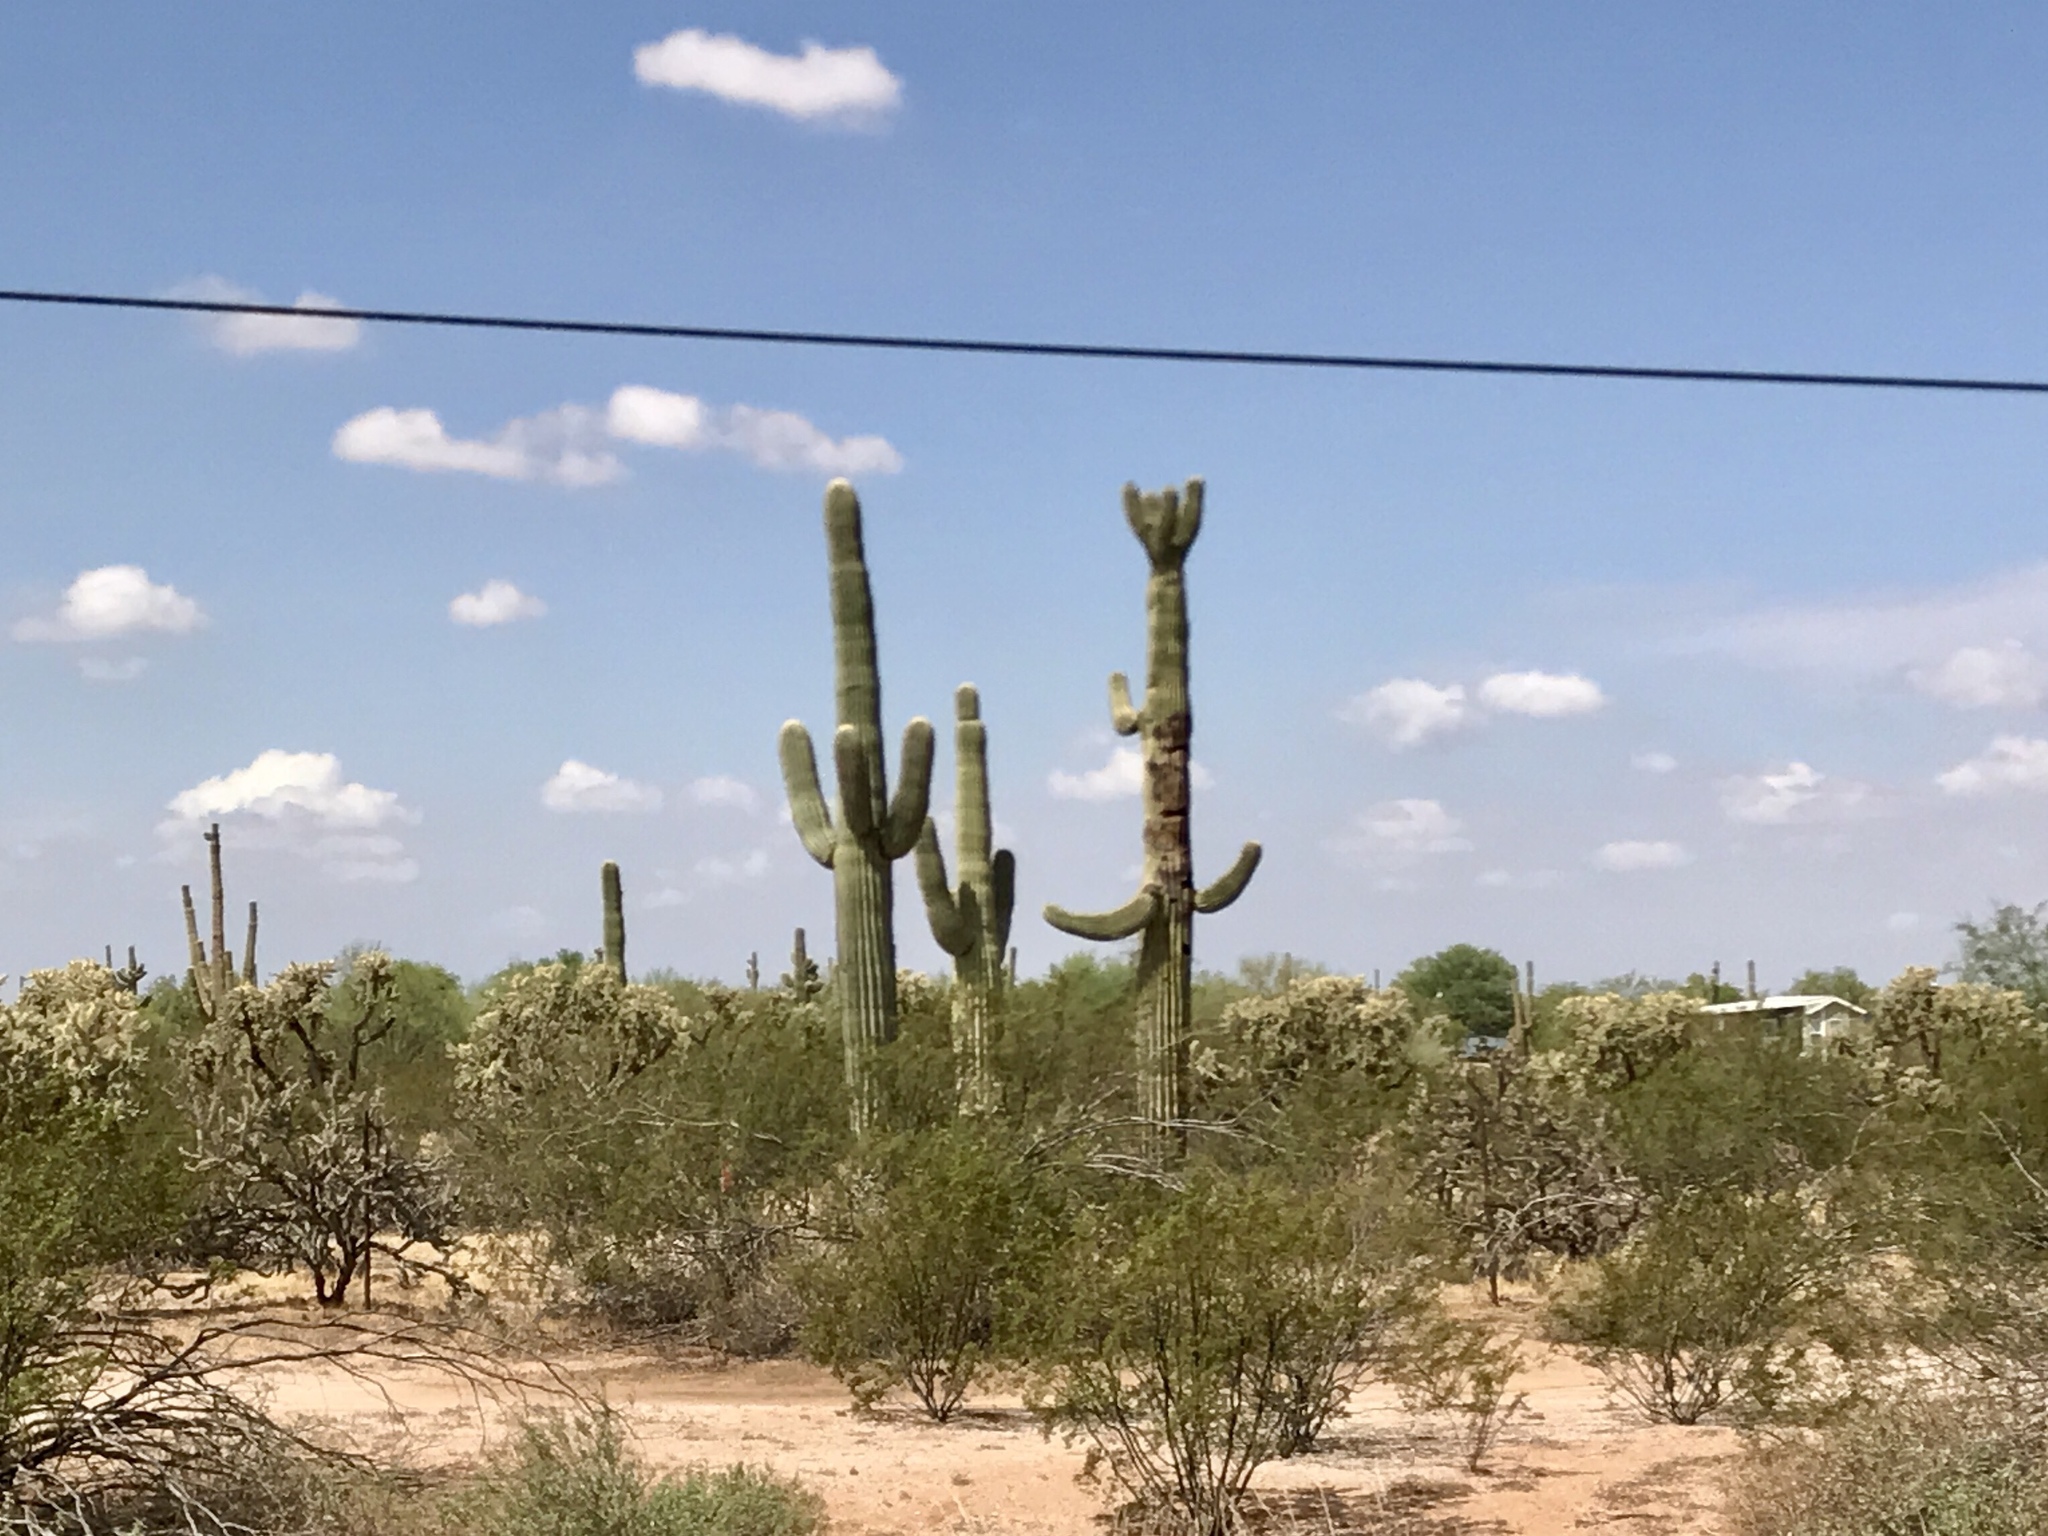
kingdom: Plantae
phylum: Tracheophyta
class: Magnoliopsida
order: Caryophyllales
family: Cactaceae
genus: Carnegiea
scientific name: Carnegiea gigantea
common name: Saguaro
